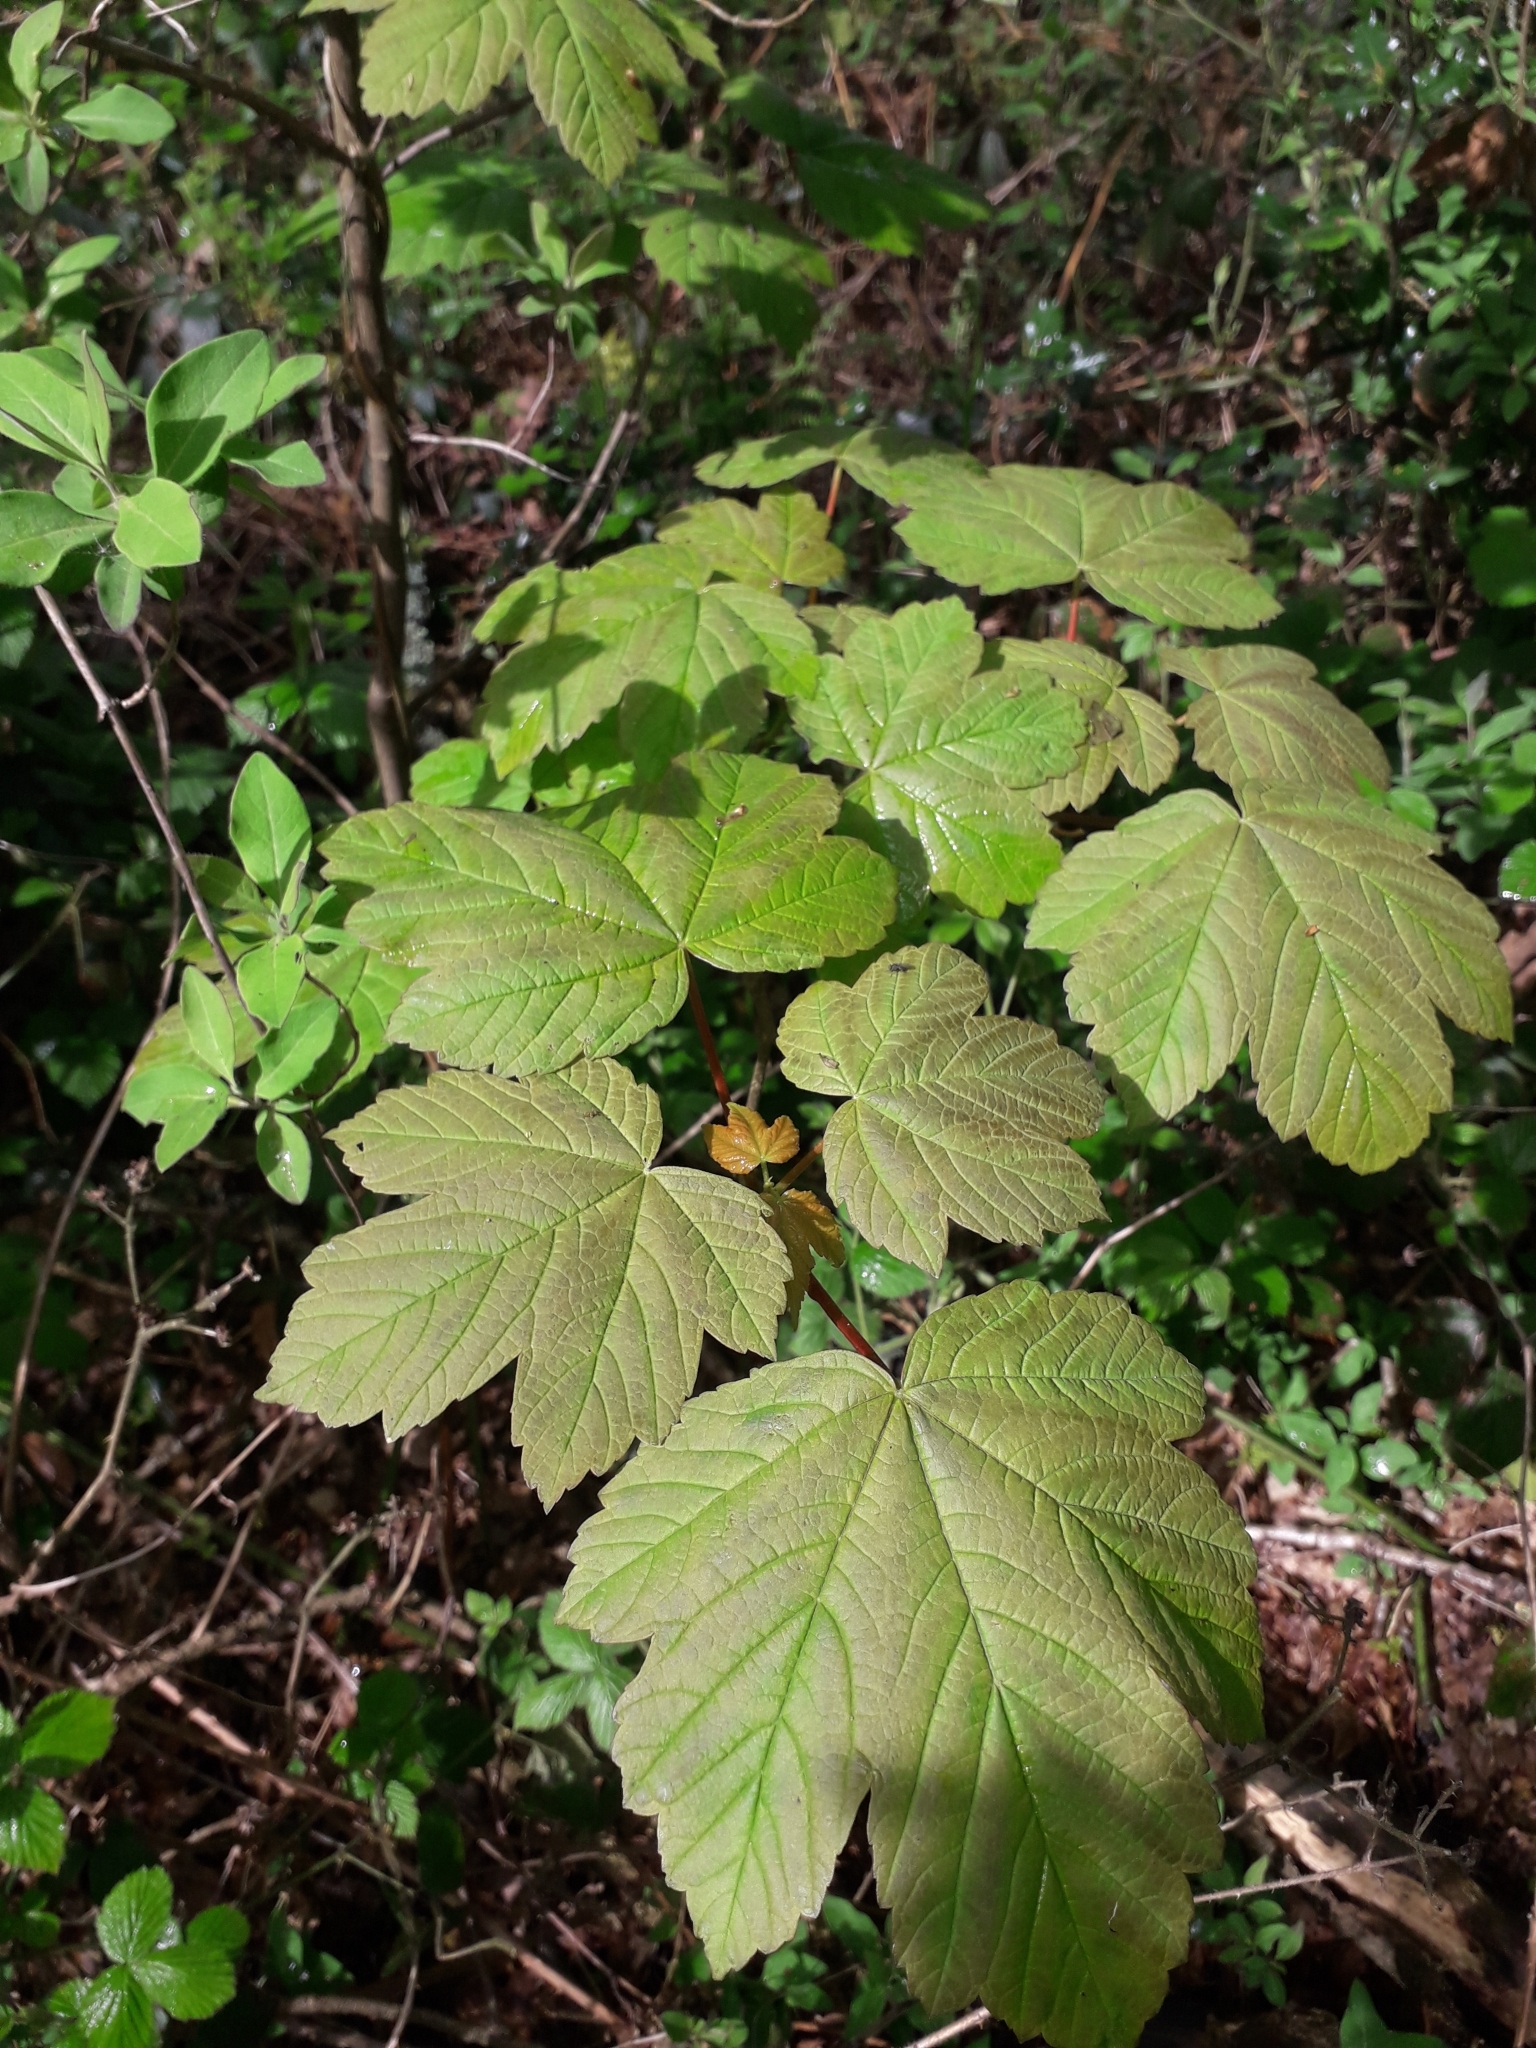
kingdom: Plantae
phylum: Tracheophyta
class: Magnoliopsida
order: Sapindales
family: Sapindaceae
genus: Acer
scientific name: Acer pseudoplatanus
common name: Sycamore
